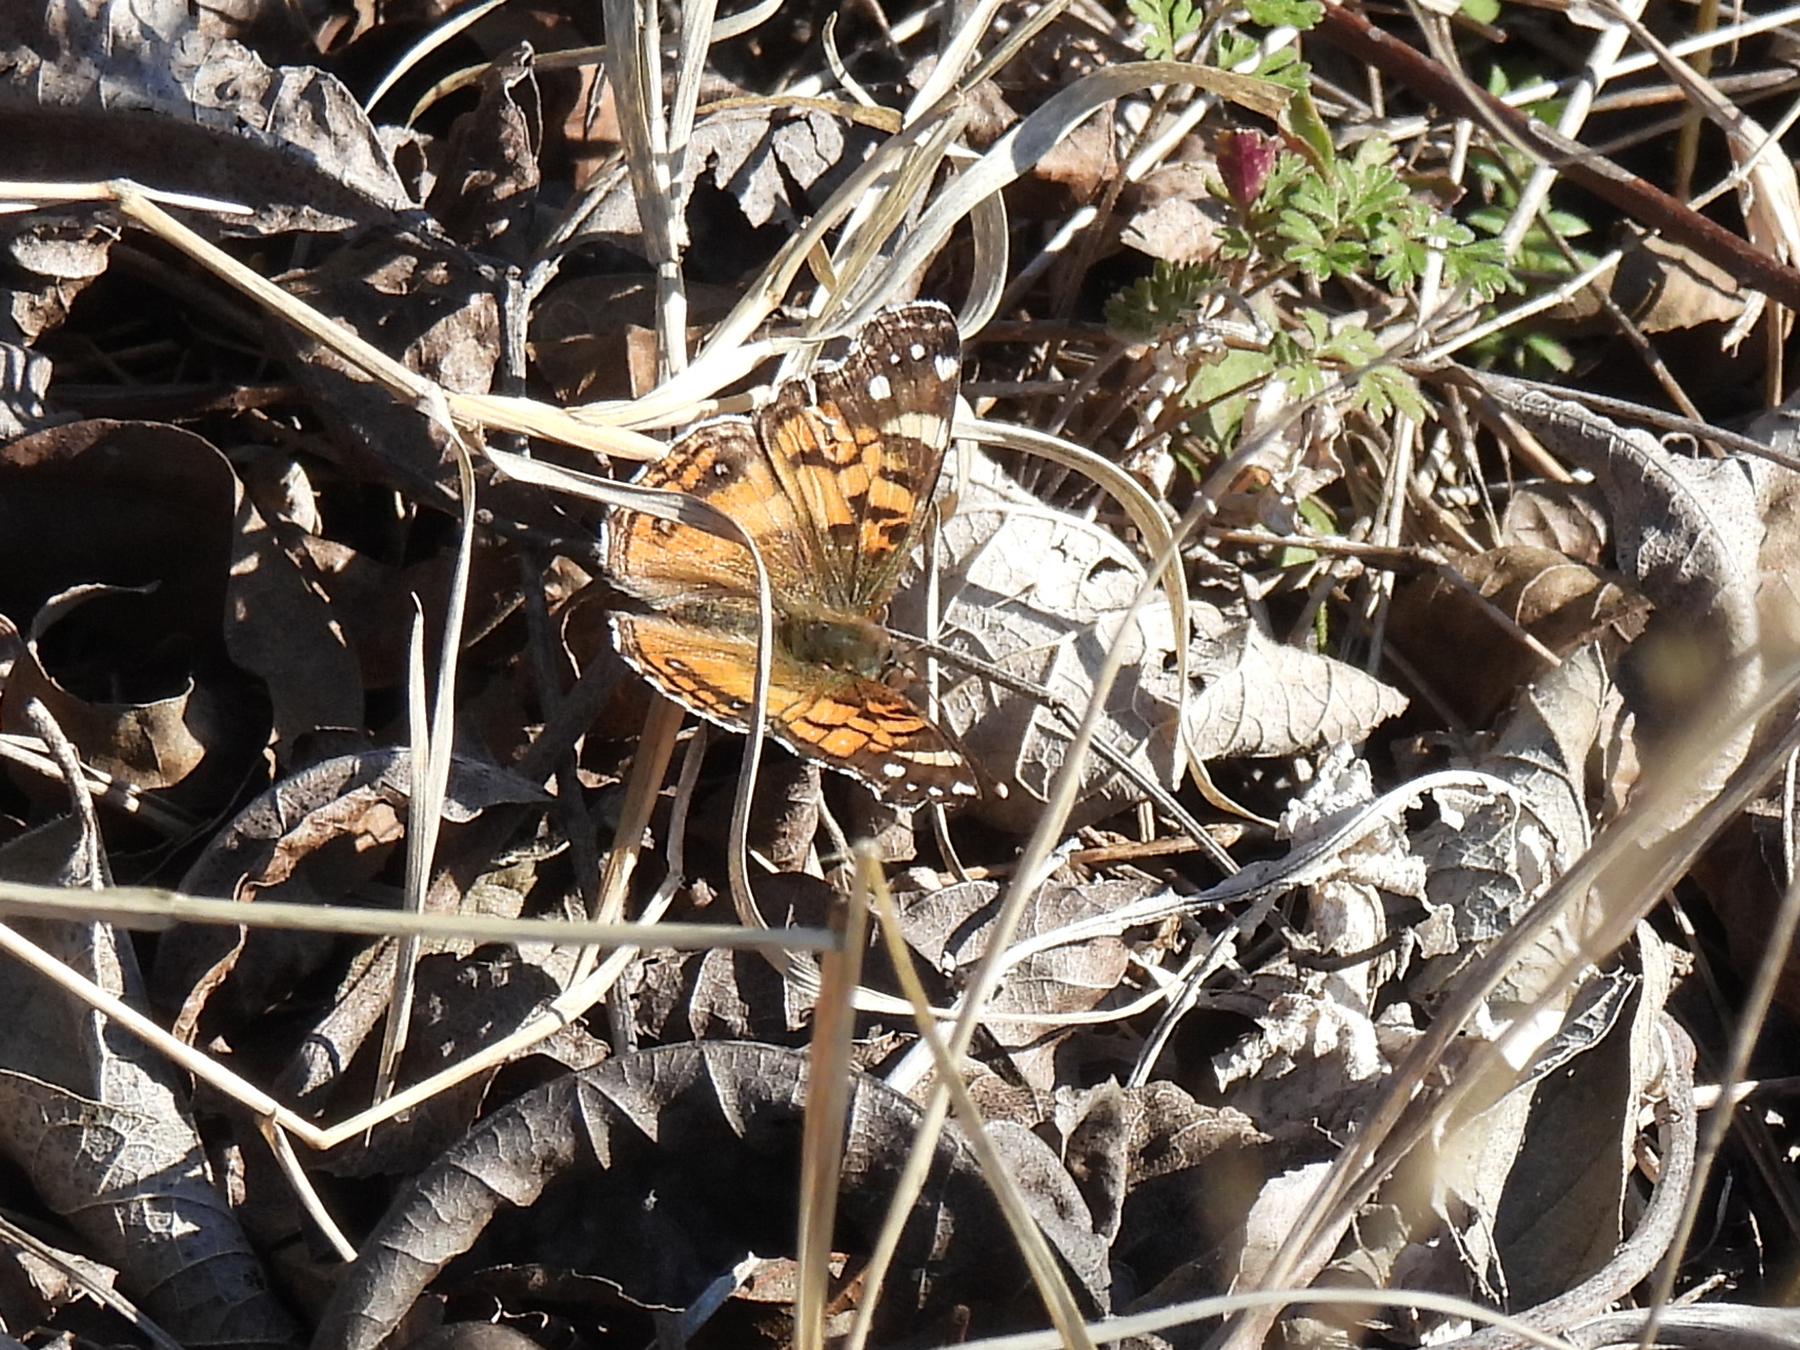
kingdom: Animalia
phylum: Arthropoda
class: Insecta
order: Lepidoptera
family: Nymphalidae
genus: Vanessa
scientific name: Vanessa virginiensis
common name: American lady
